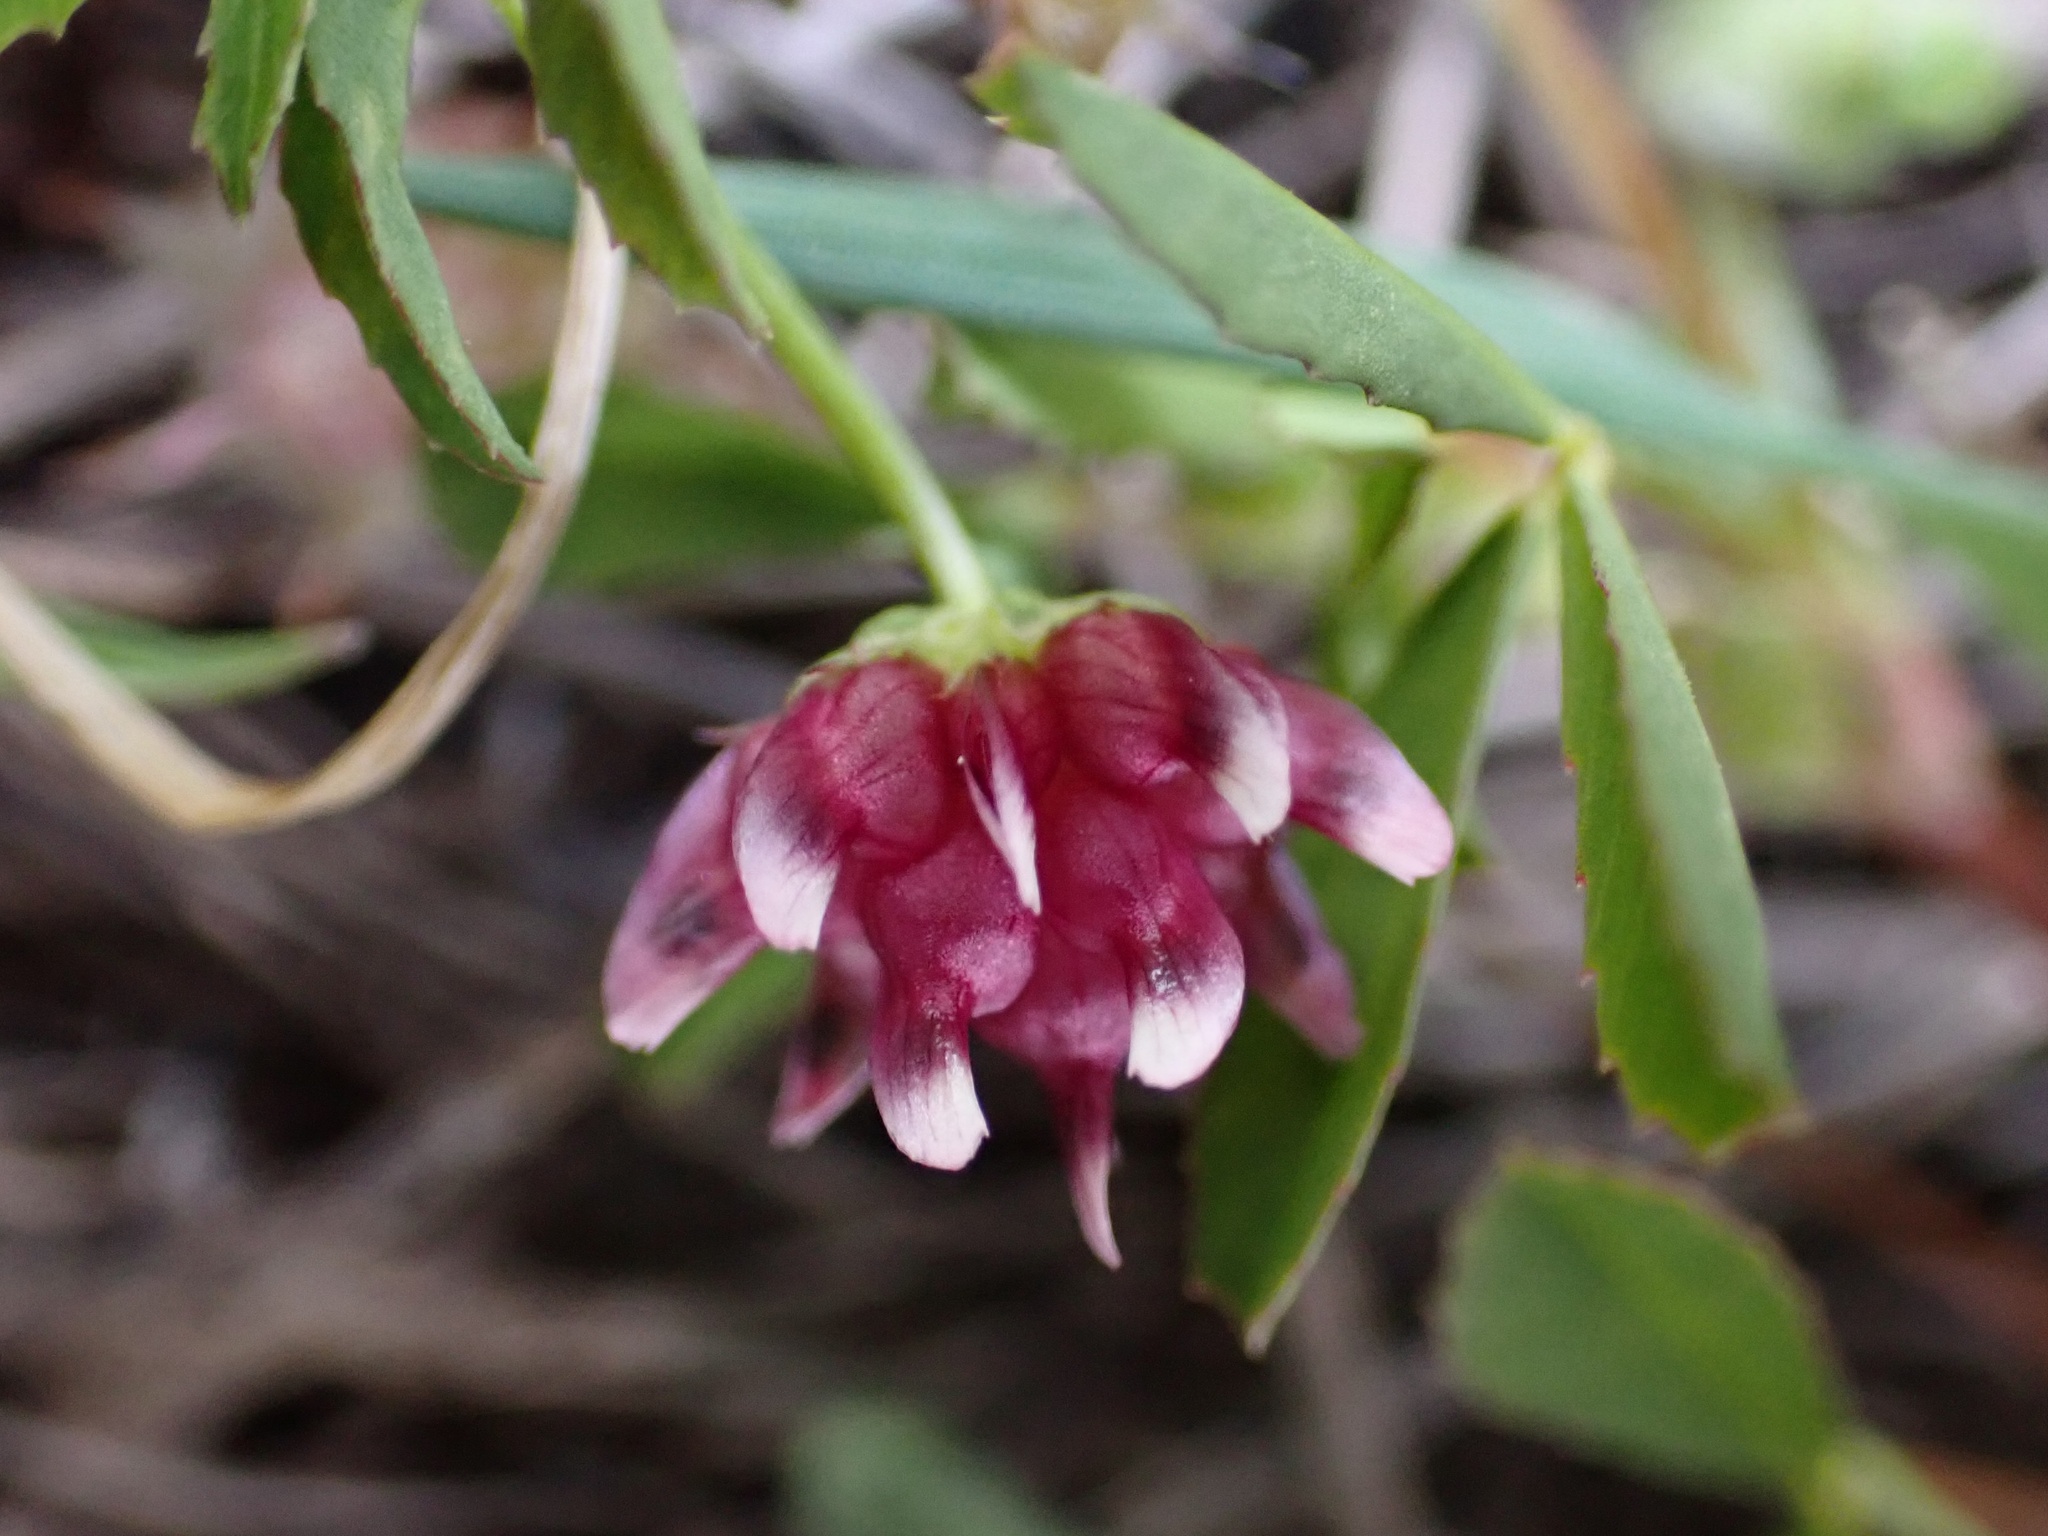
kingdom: Plantae
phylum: Tracheophyta
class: Magnoliopsida
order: Fabales
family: Fabaceae
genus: Trifolium
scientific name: Trifolium depauperatum
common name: Poverty clover
